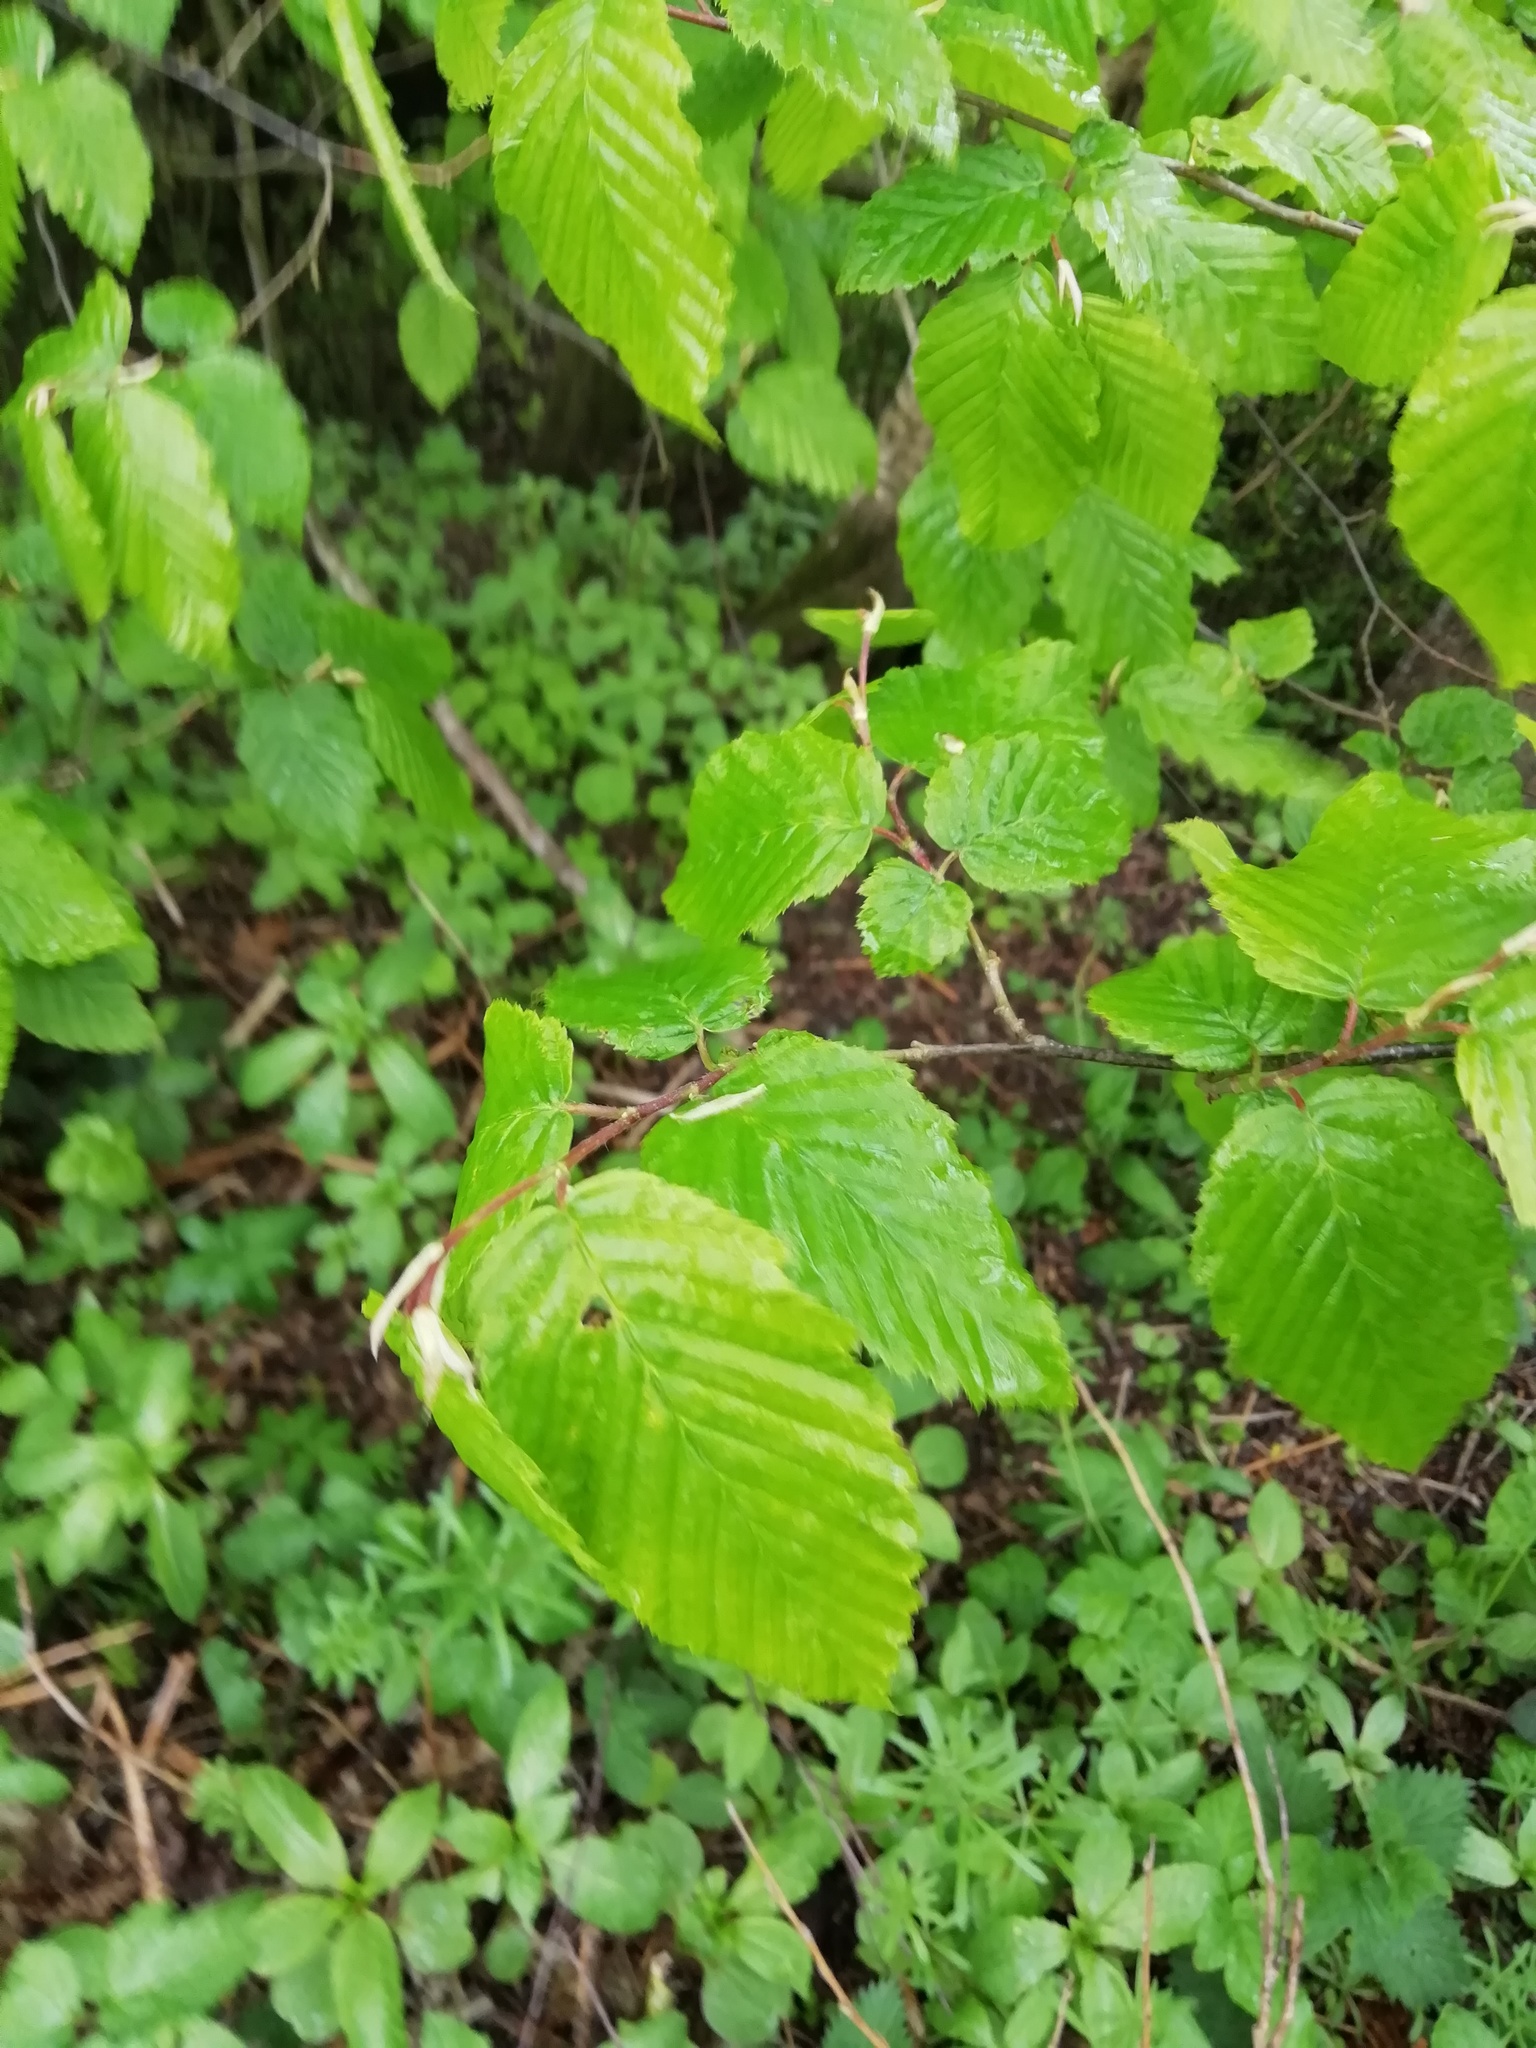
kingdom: Plantae
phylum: Tracheophyta
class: Magnoliopsida
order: Fagales
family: Betulaceae
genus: Carpinus
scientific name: Carpinus betulus
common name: Hornbeam
